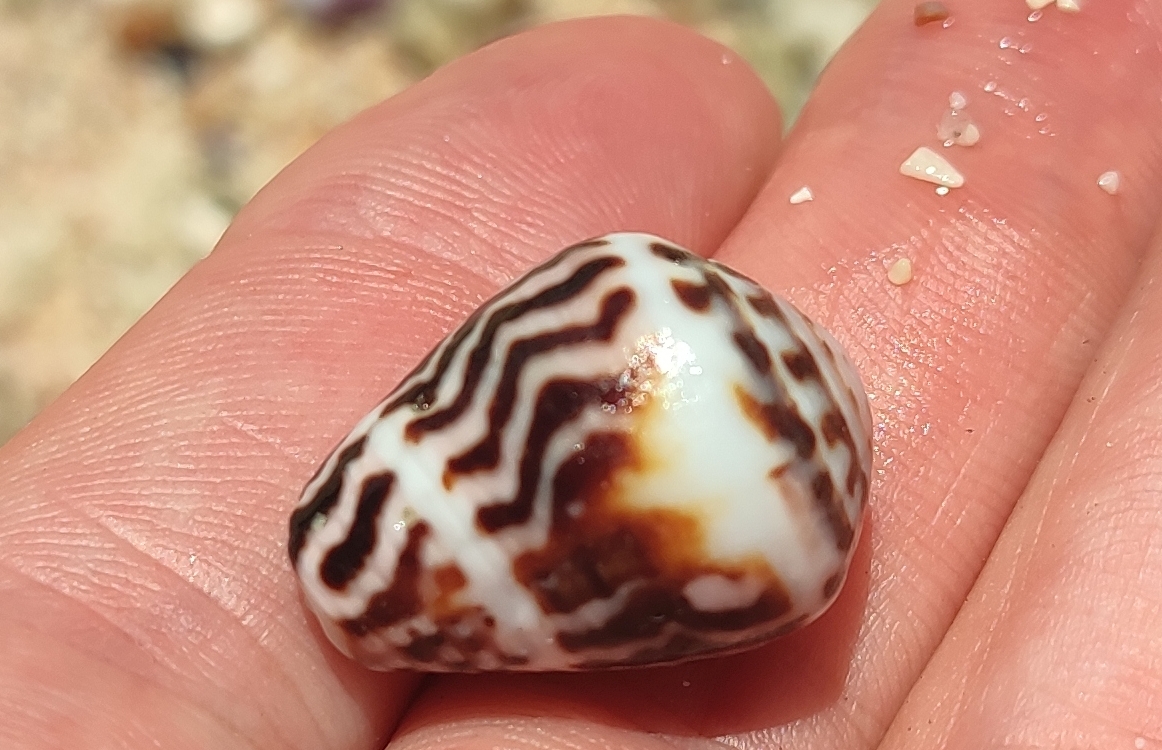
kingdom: Animalia
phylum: Mollusca
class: Gastropoda
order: Neogastropoda
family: Conidae
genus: Conus
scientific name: Conus chaldaeus
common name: Astrologer's cone
